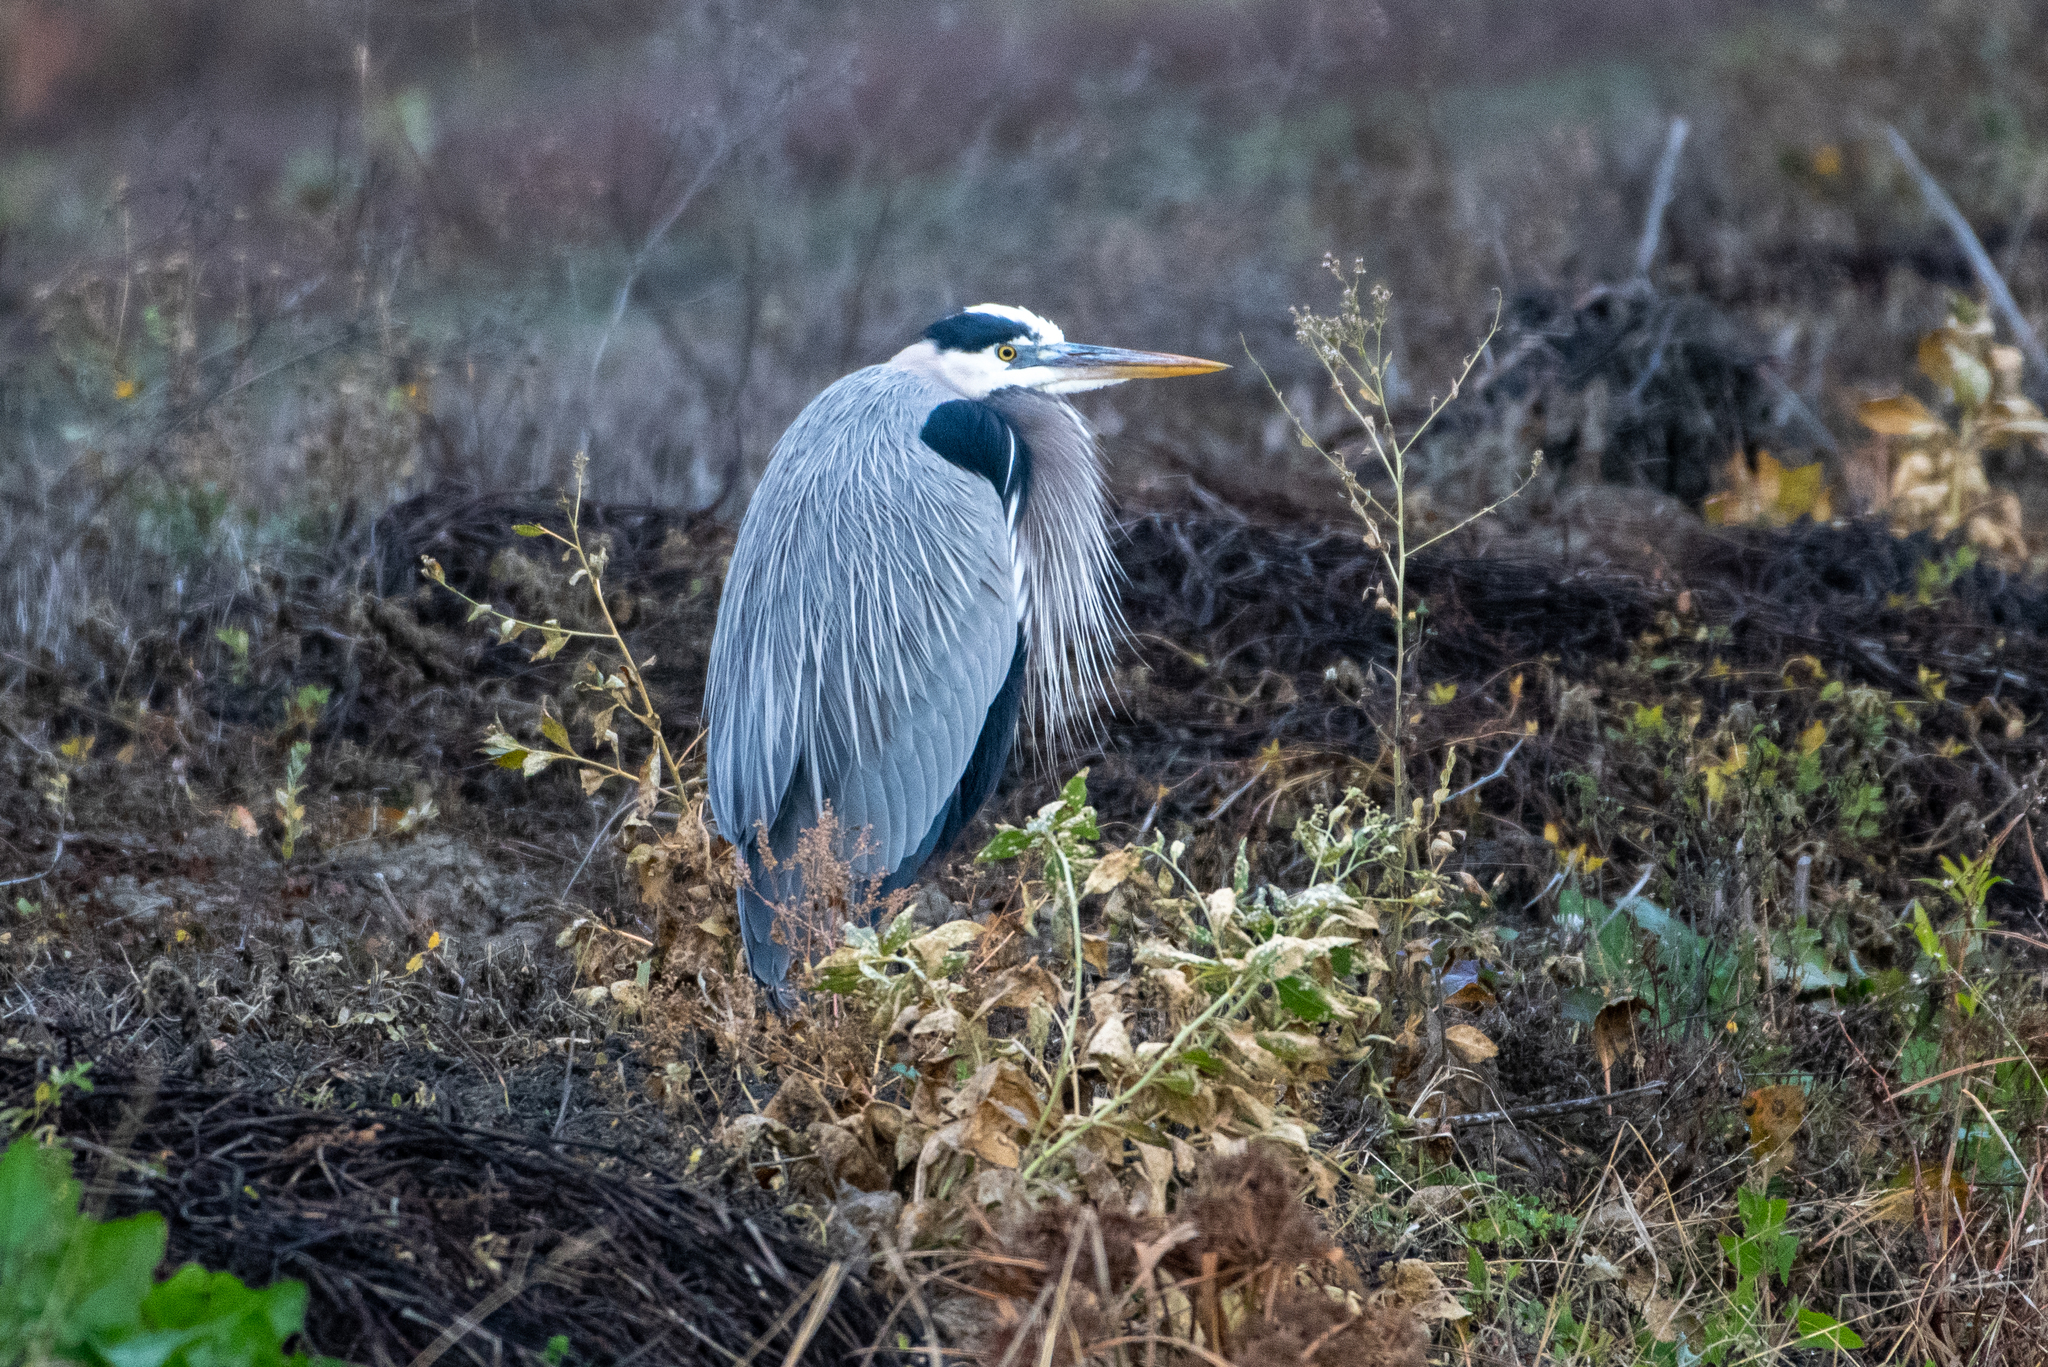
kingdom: Animalia
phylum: Chordata
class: Aves
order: Pelecaniformes
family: Ardeidae
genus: Ardea
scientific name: Ardea herodias
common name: Great blue heron
